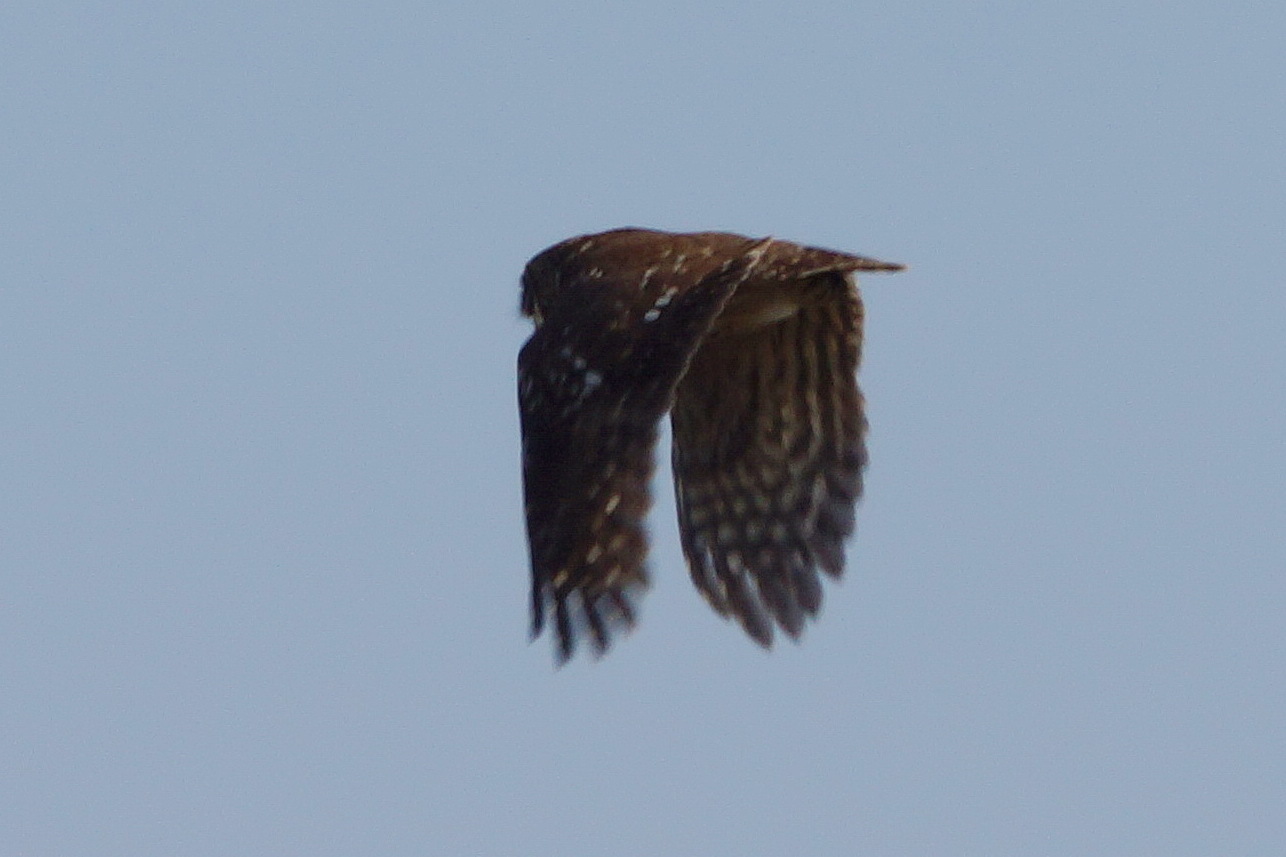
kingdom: Animalia
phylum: Chordata
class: Aves
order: Strigiformes
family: Strigidae
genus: Athene
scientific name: Athene noctua
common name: Little owl
